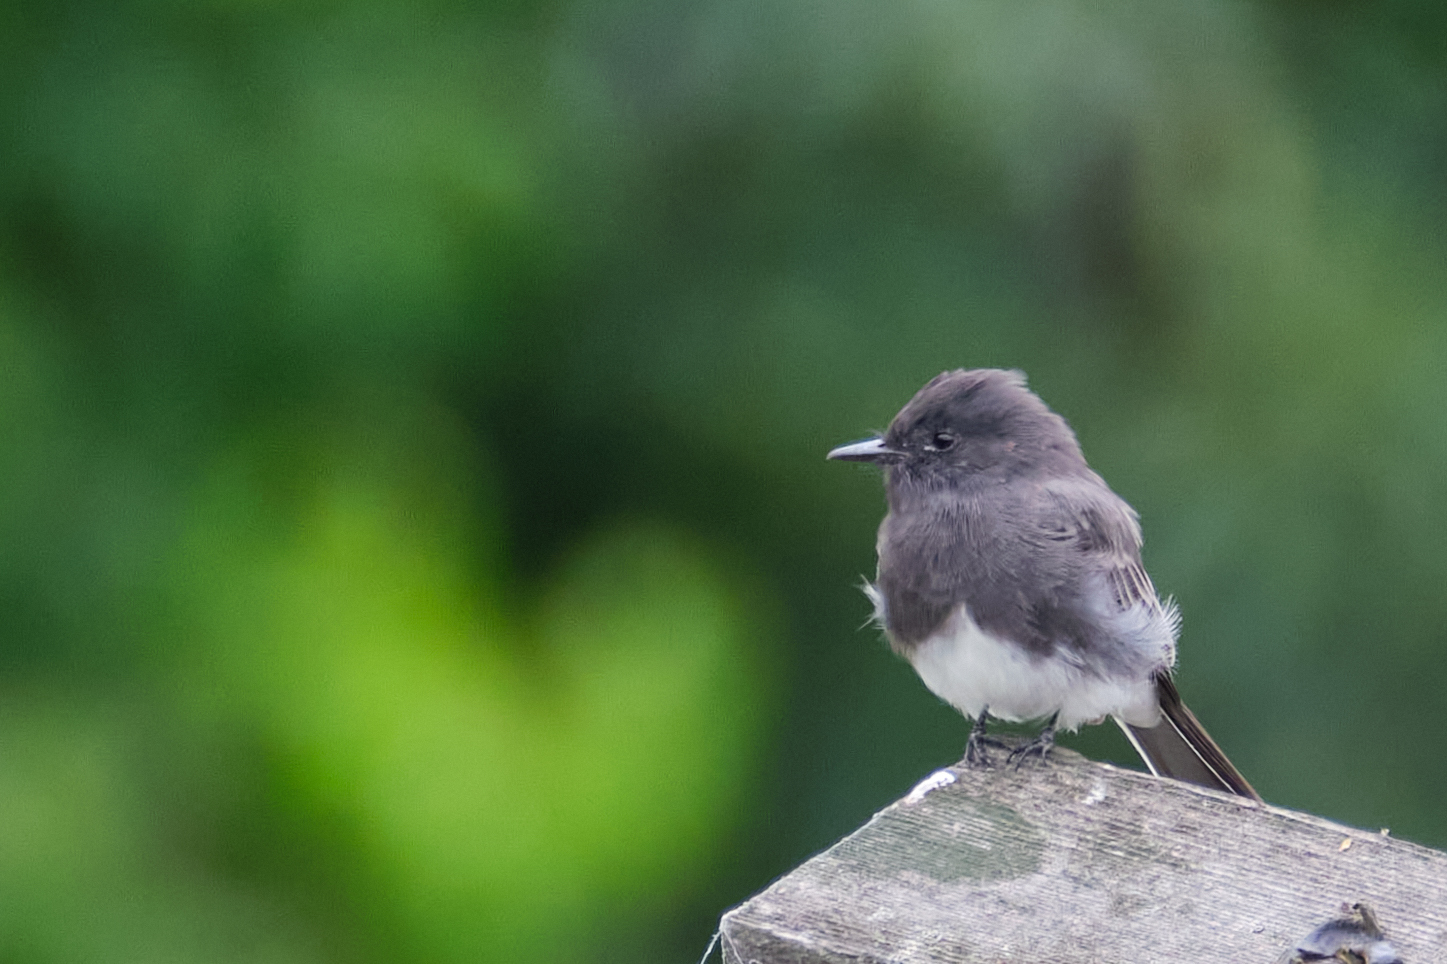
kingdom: Animalia
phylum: Chordata
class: Aves
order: Passeriformes
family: Tyrannidae
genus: Sayornis
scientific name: Sayornis nigricans
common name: Black phoebe
